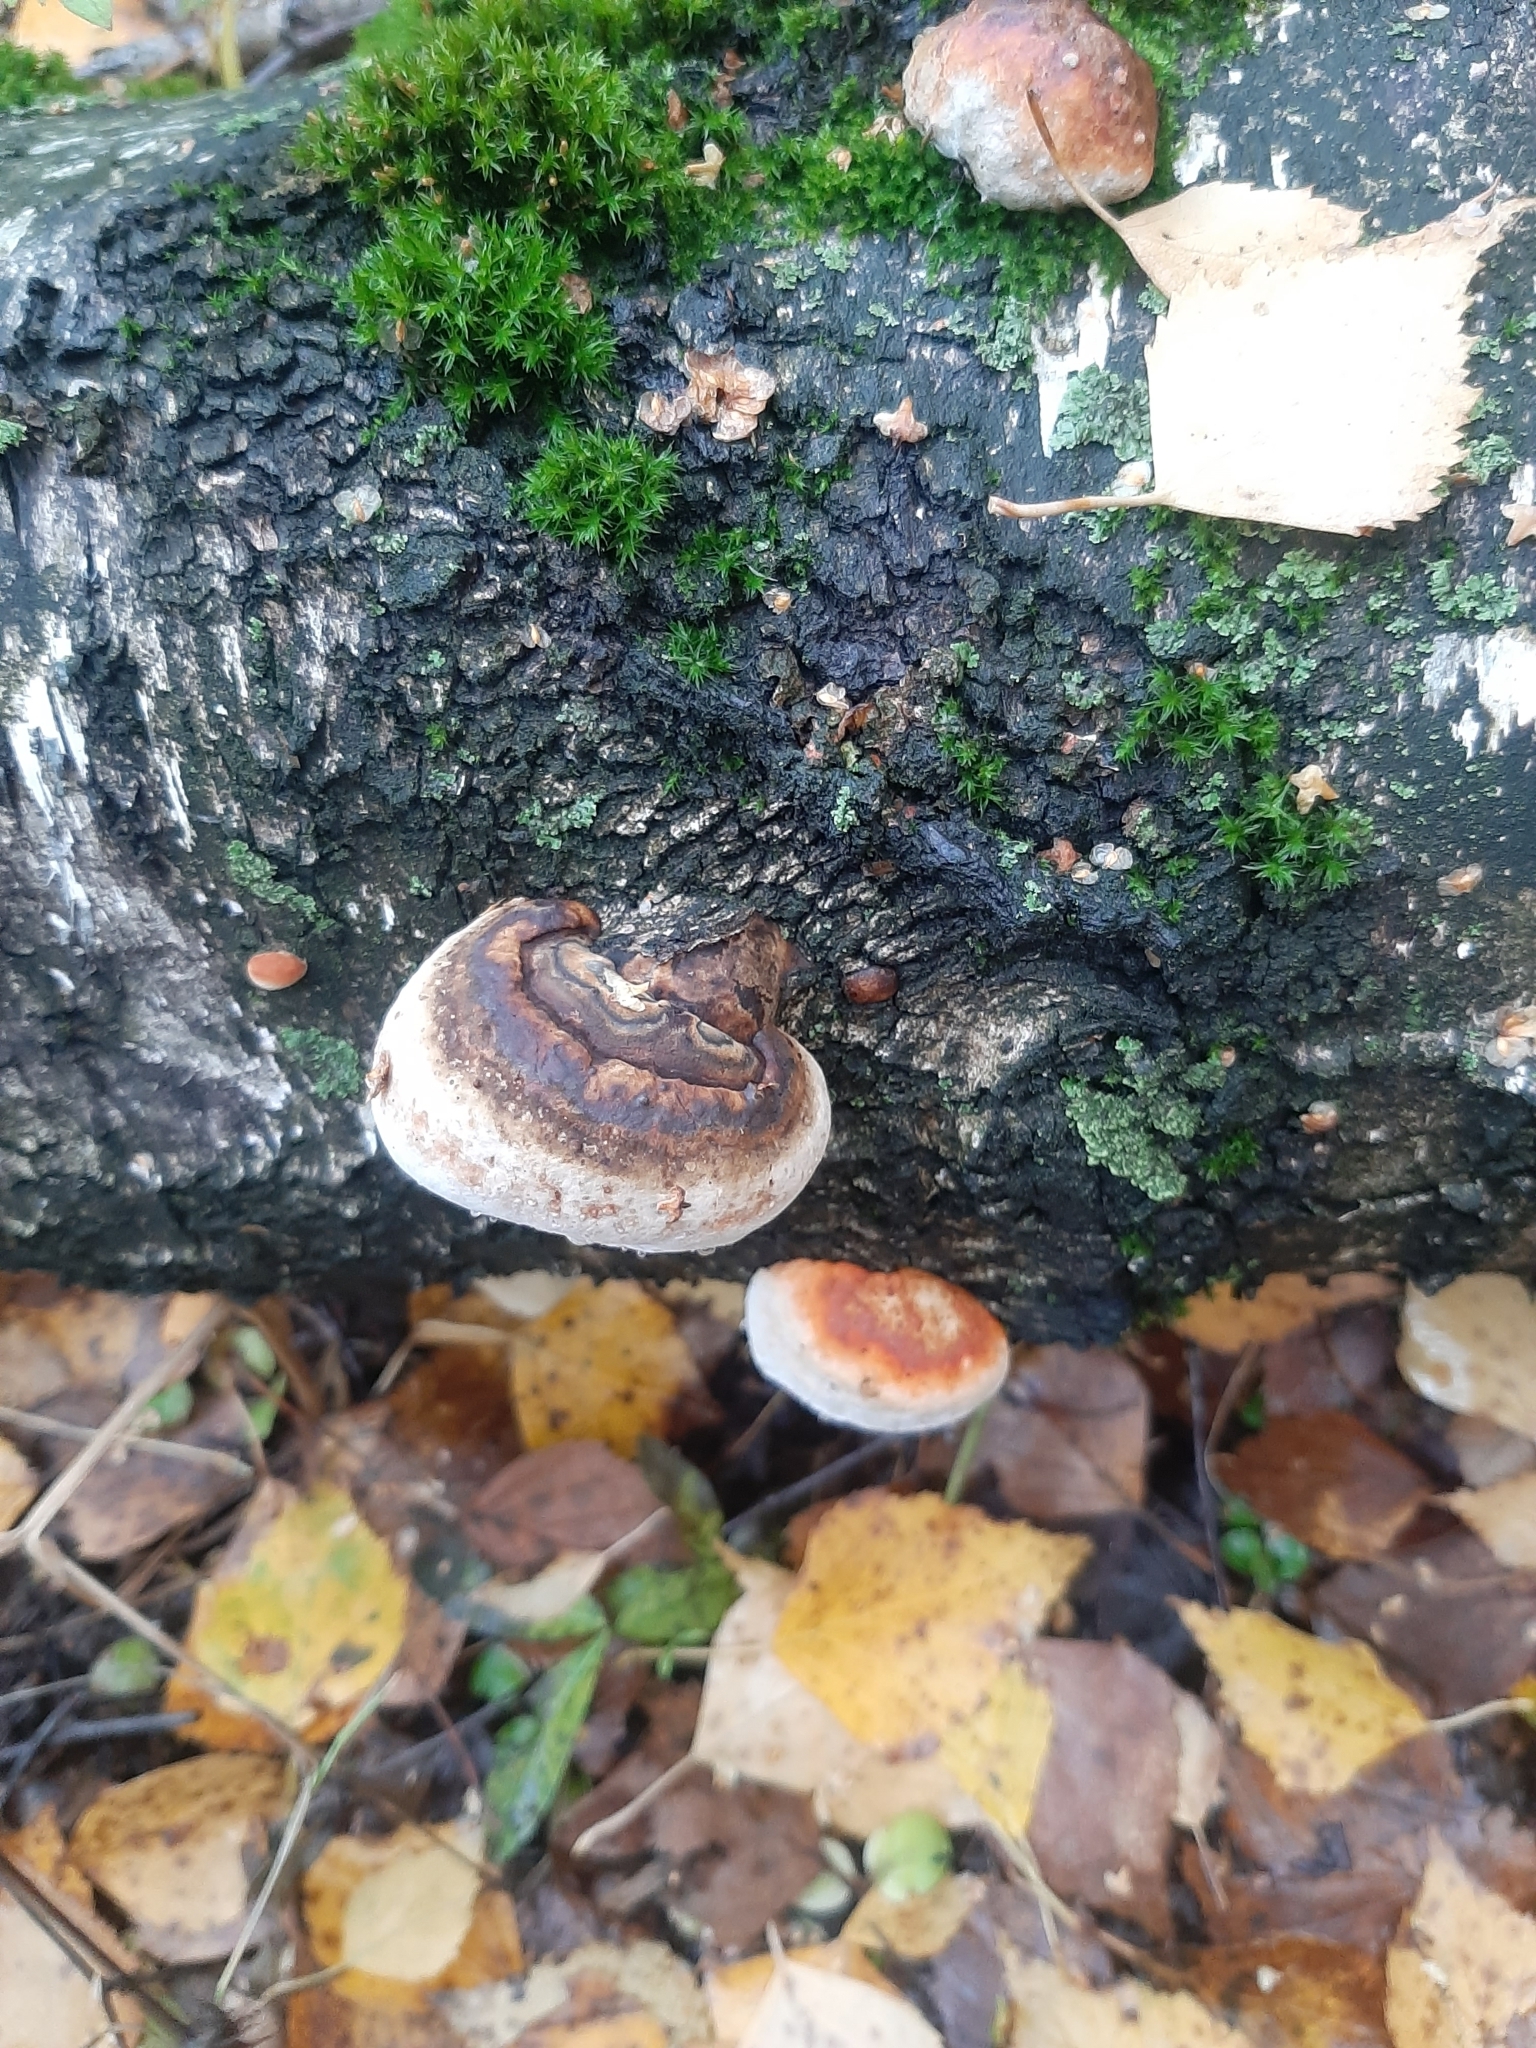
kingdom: Fungi
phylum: Basidiomycota
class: Agaricomycetes
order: Polyporales
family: Fomitopsidaceae
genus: Fomitopsis
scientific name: Fomitopsis pinicola
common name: Red-belted bracket
